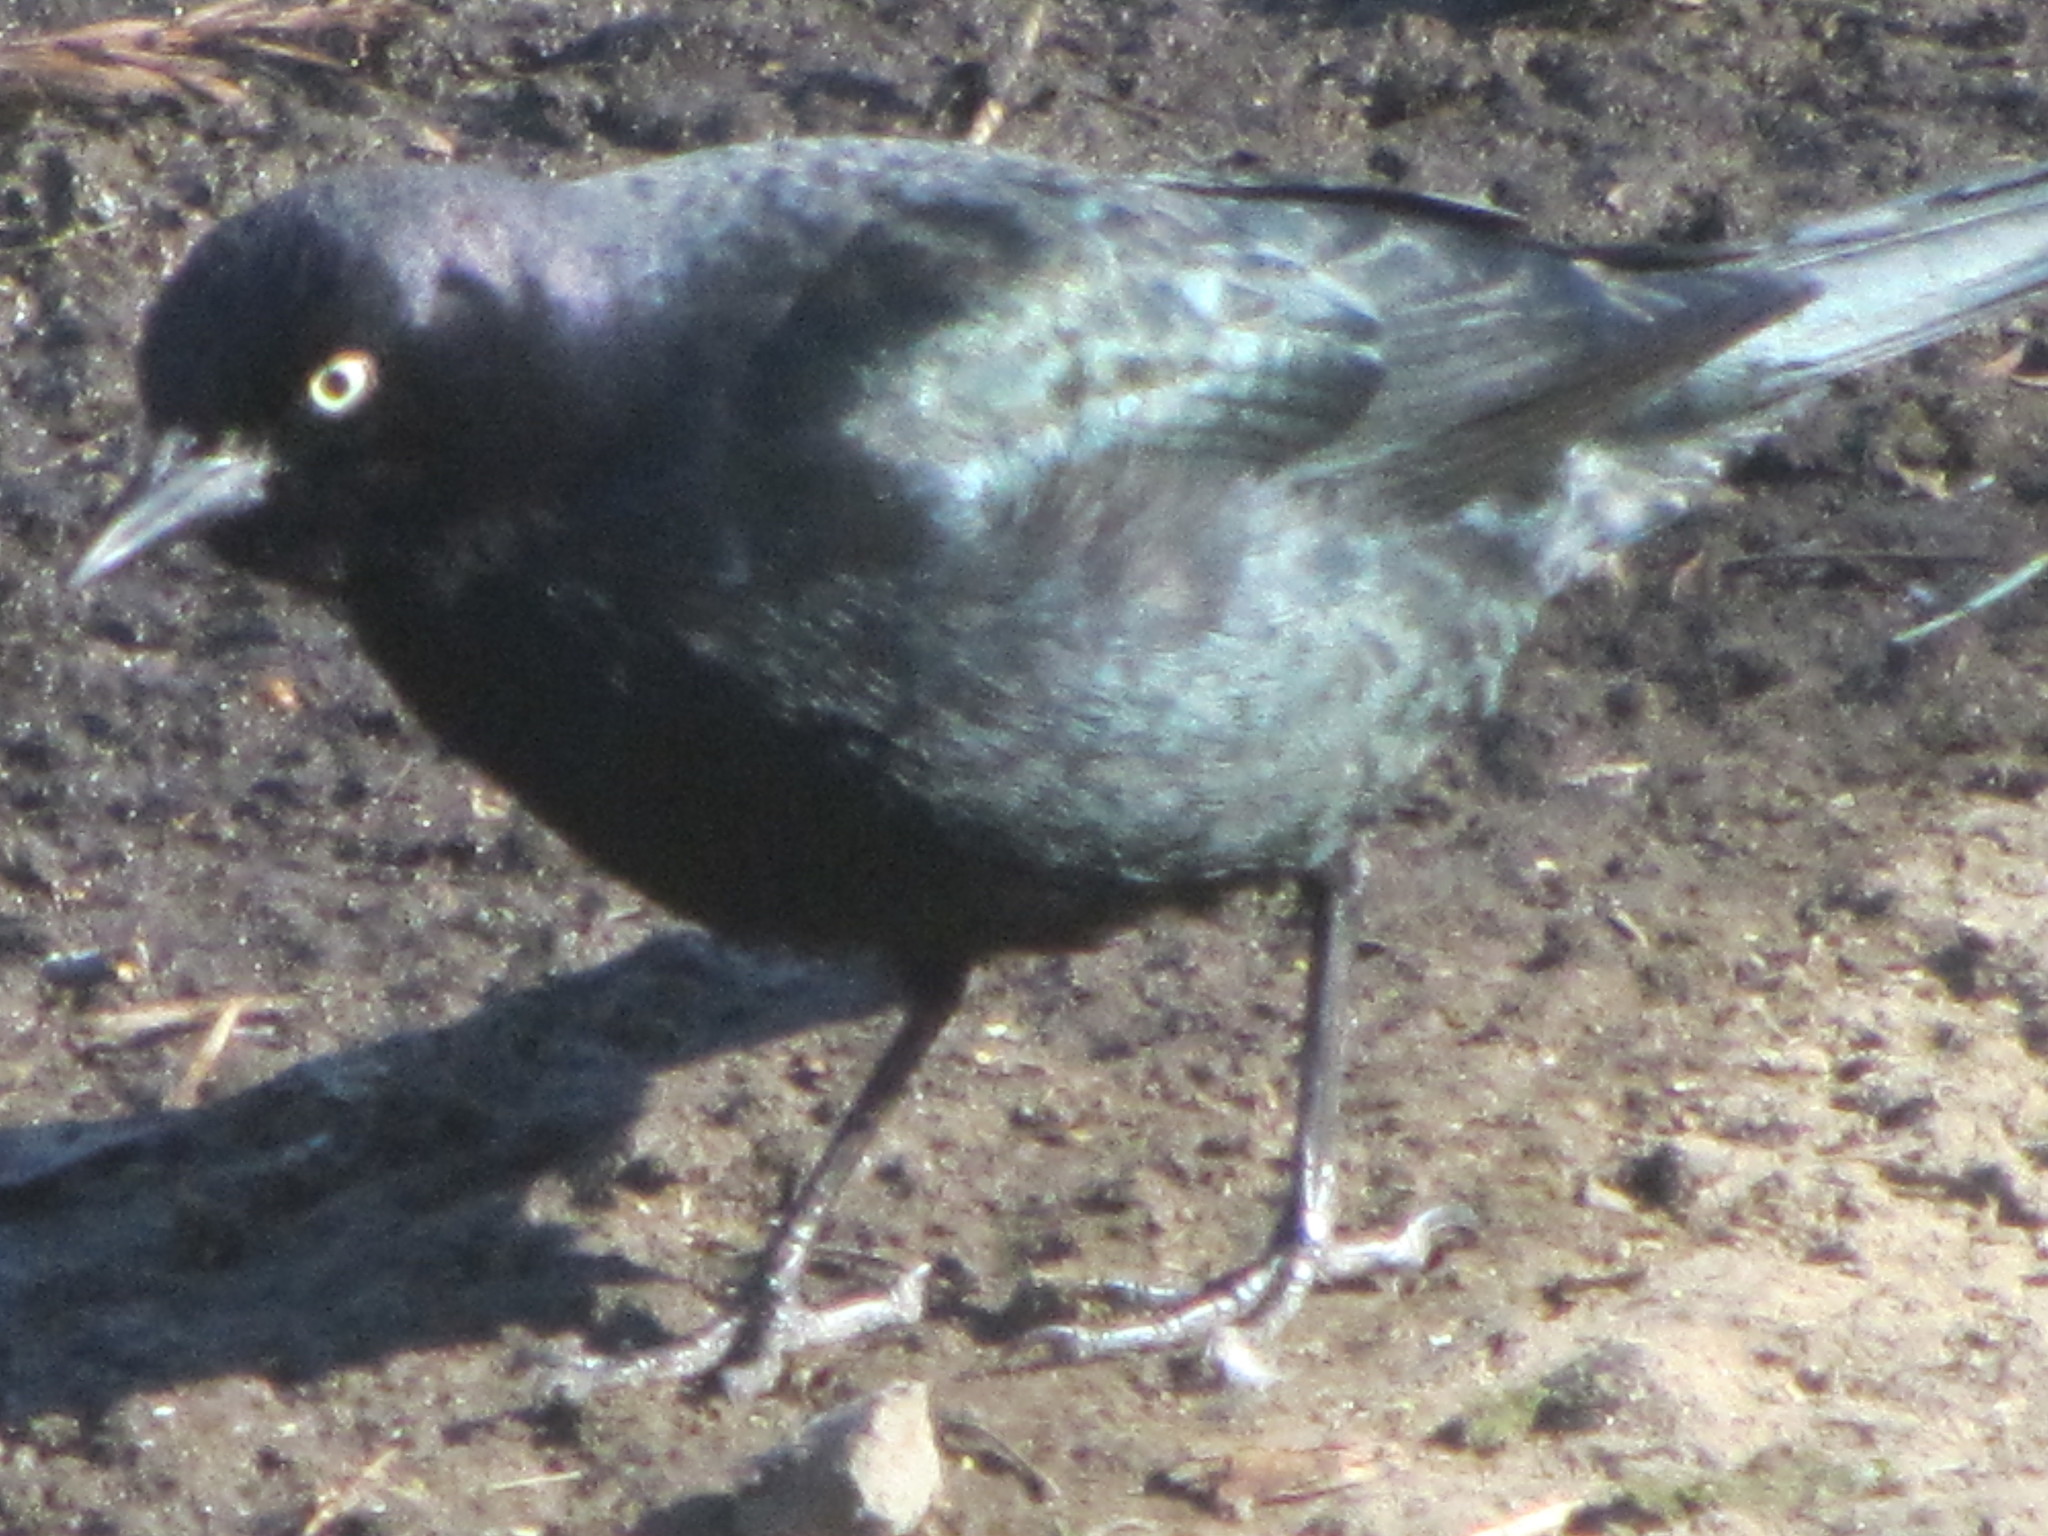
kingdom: Animalia
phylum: Chordata
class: Aves
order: Passeriformes
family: Icteridae
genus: Euphagus
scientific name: Euphagus cyanocephalus
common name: Brewer's blackbird
